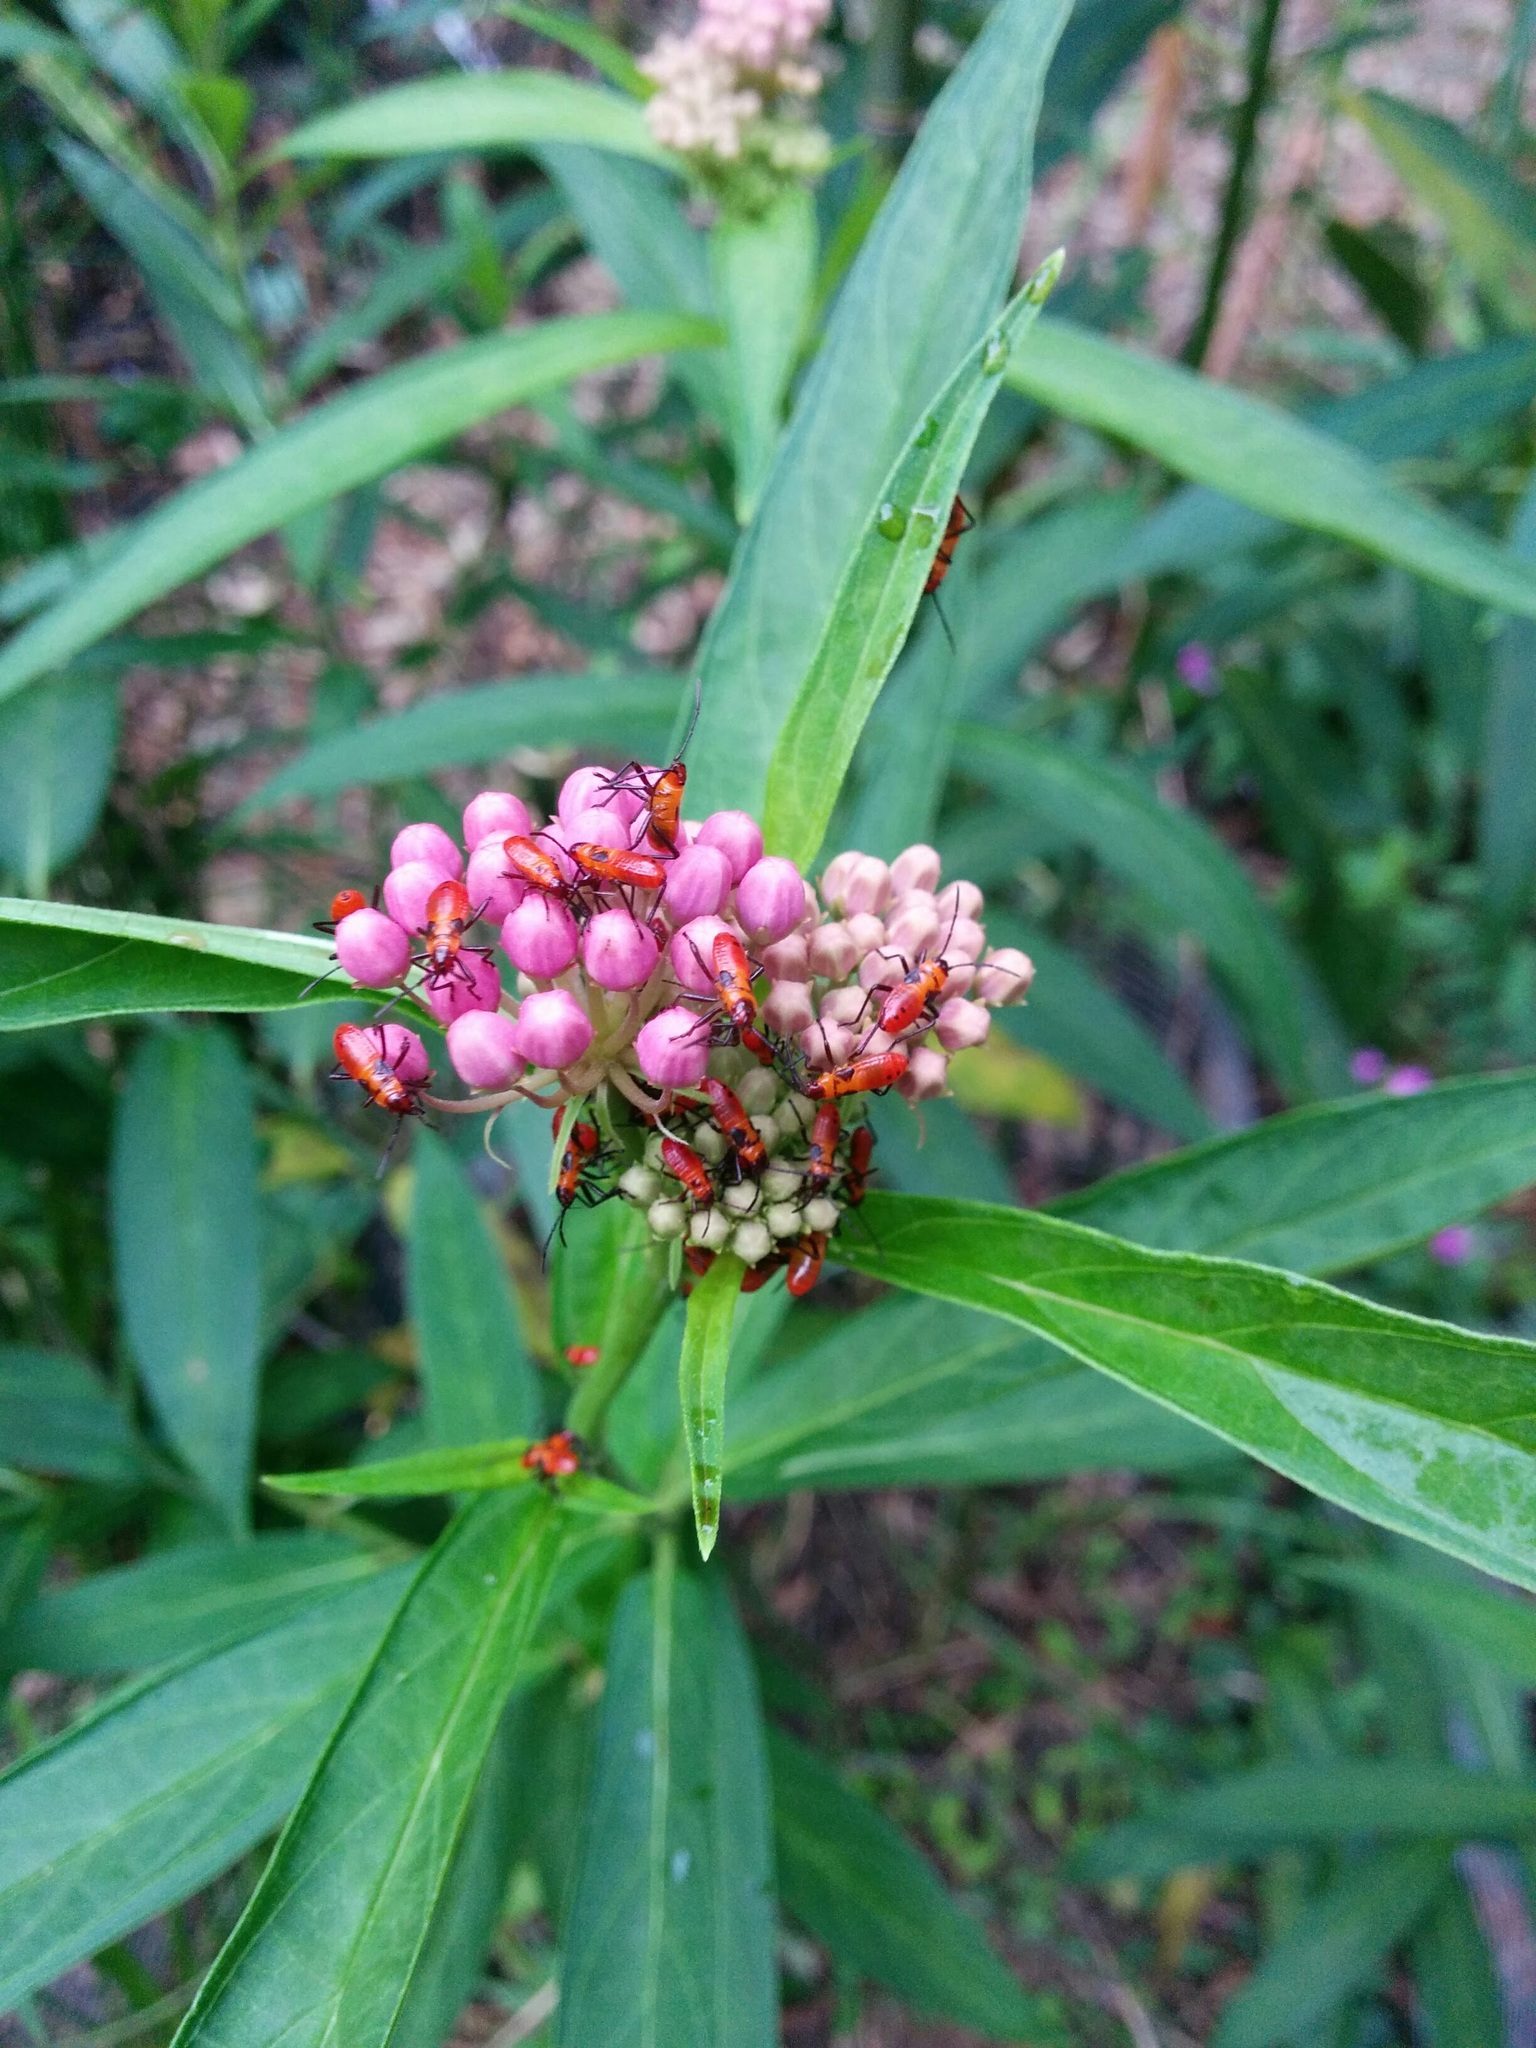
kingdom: Animalia
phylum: Arthropoda
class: Insecta
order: Hemiptera
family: Lygaeidae
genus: Oncopeltus
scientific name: Oncopeltus fasciatus
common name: Large milkweed bug
